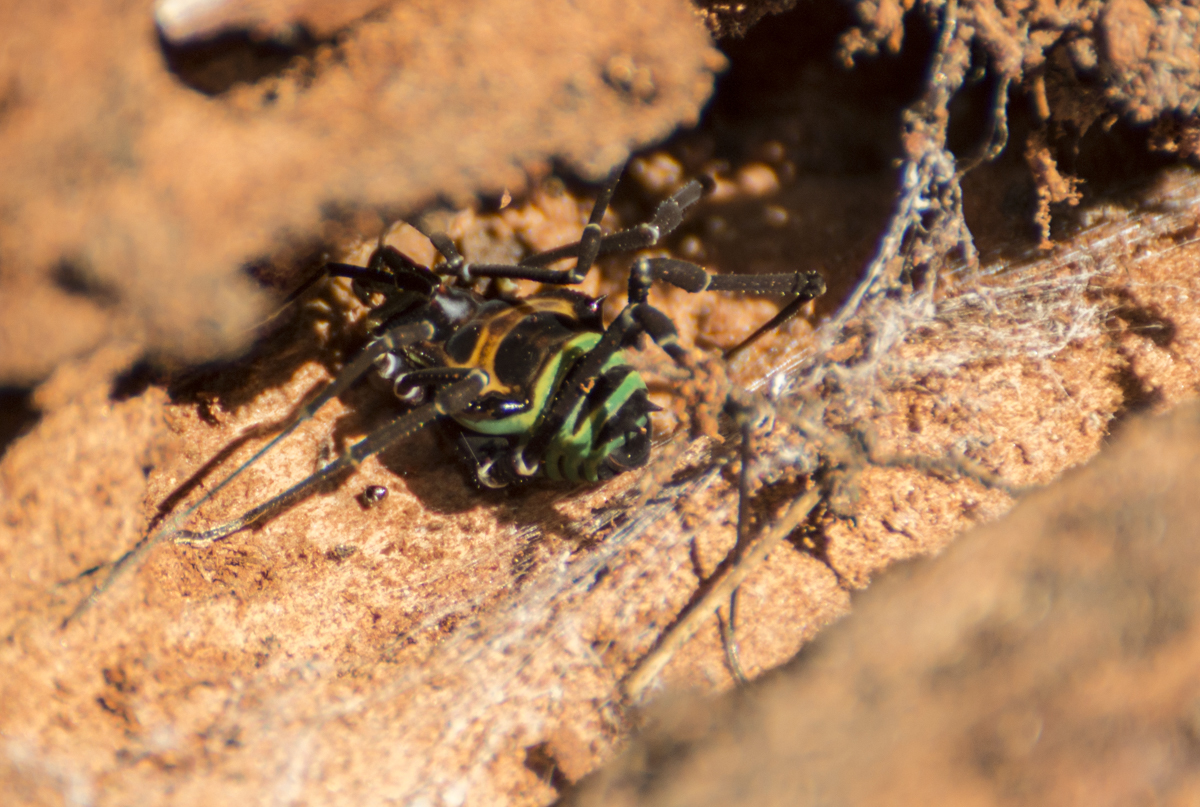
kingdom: Animalia
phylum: Arthropoda
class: Arachnida
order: Opiliones
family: Gonyleptidae
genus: Sadocus
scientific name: Sadocus polyacanthus
